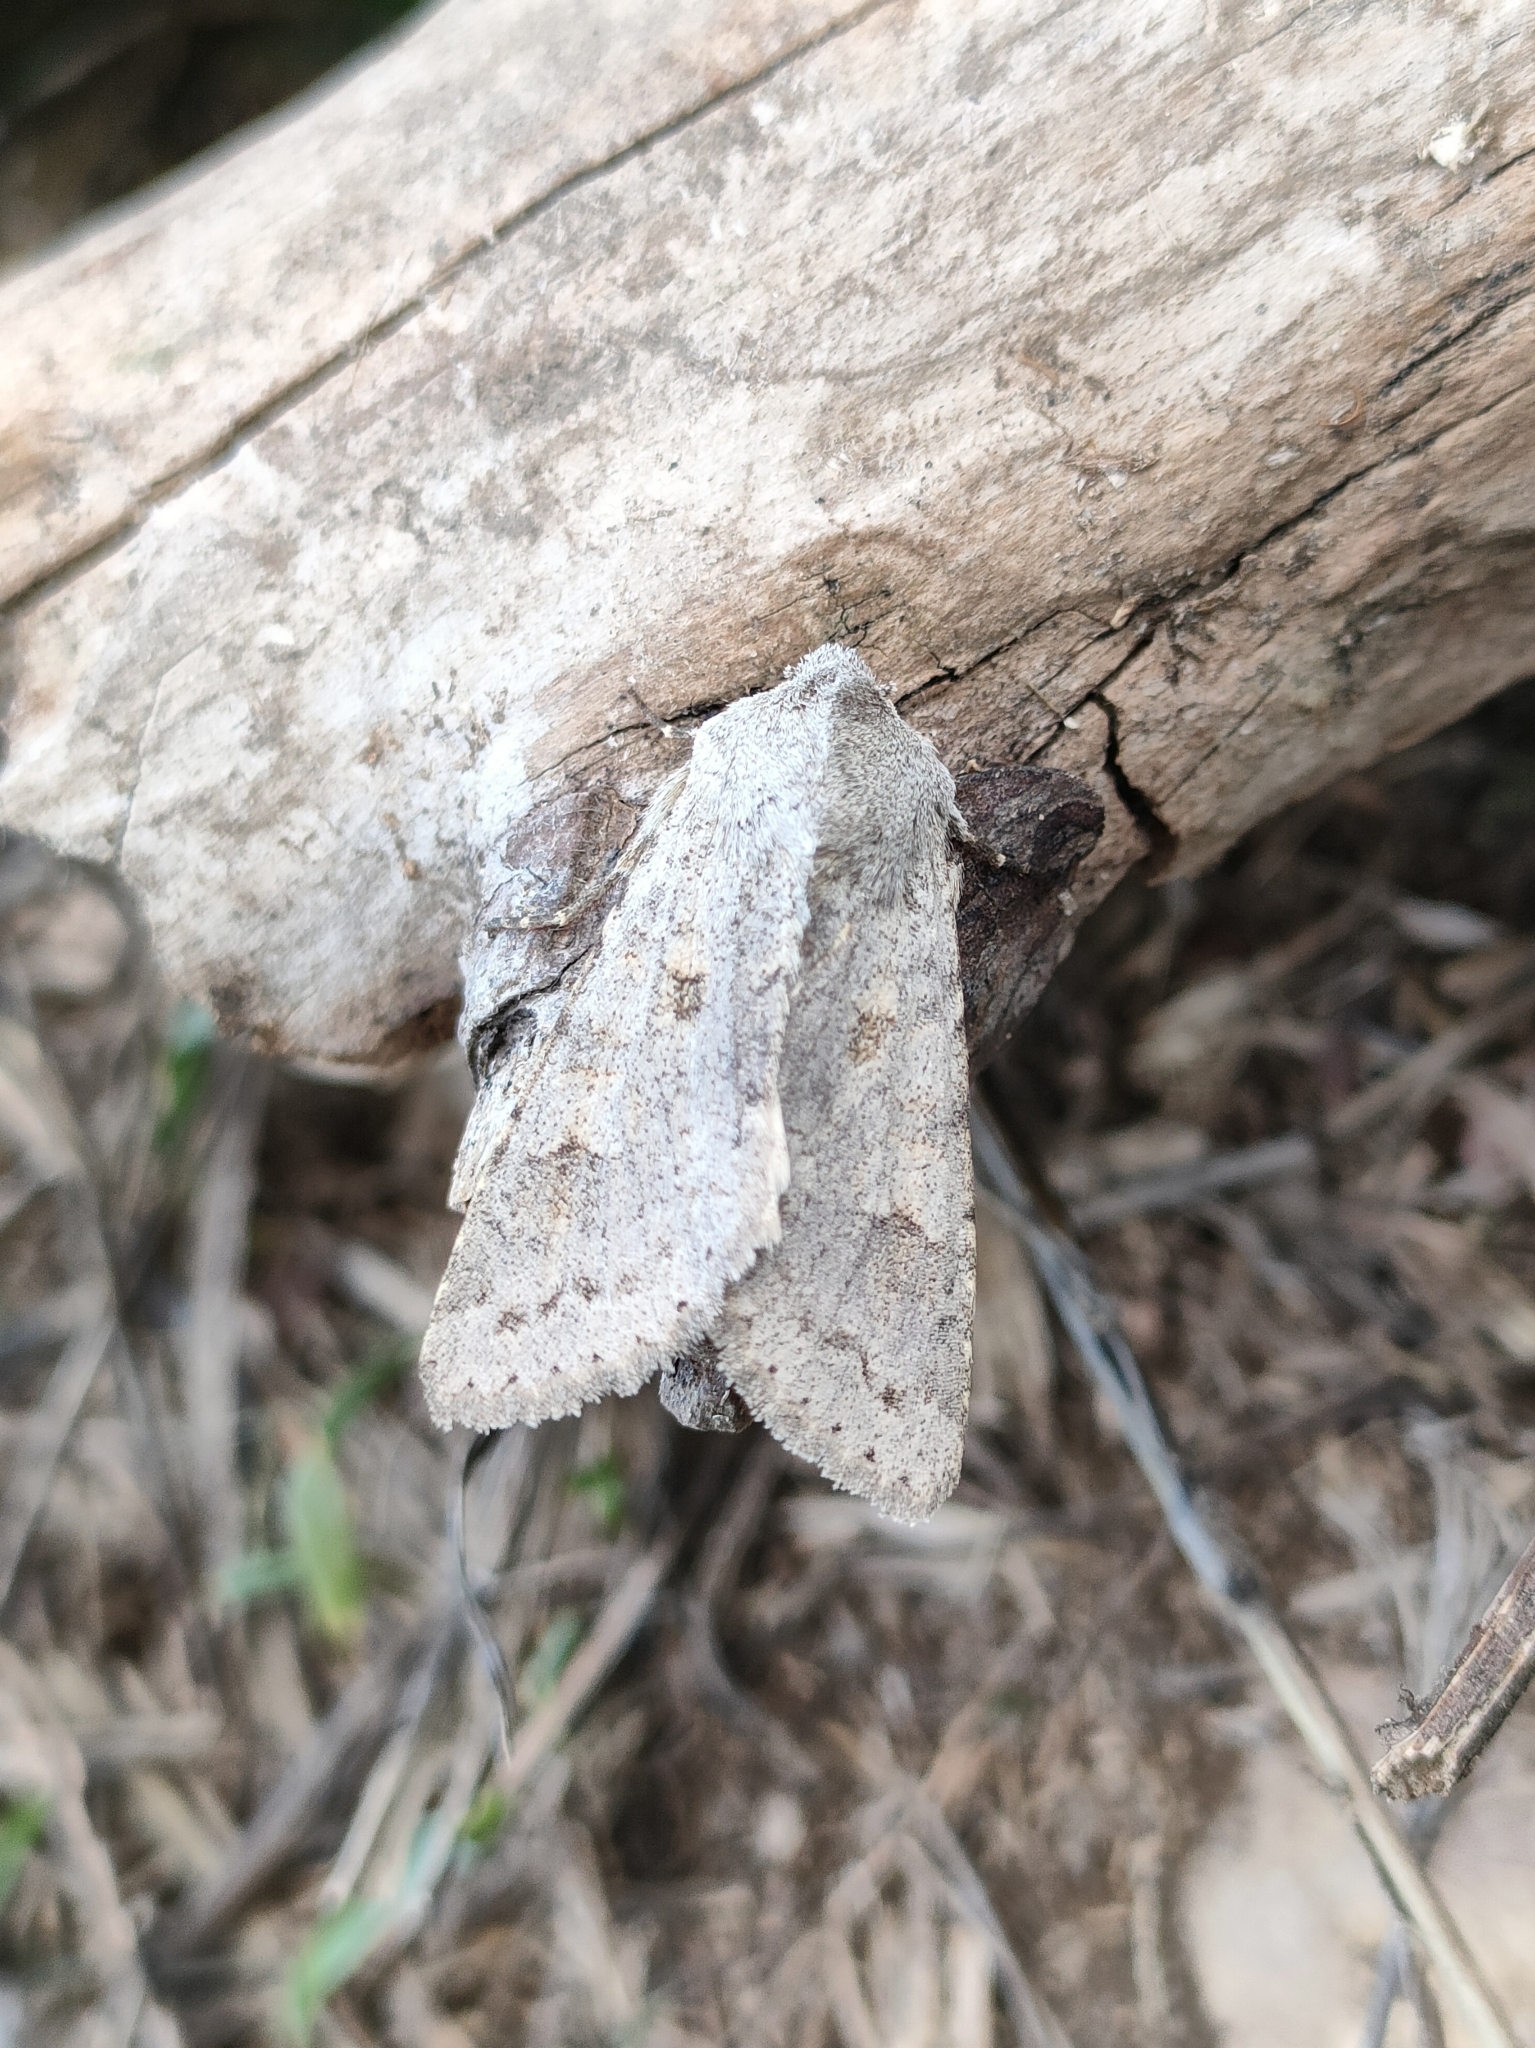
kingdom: Animalia
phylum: Arthropoda
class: Insecta
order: Lepidoptera
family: Noctuidae
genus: Ammoconia
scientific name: Ammoconia senex
